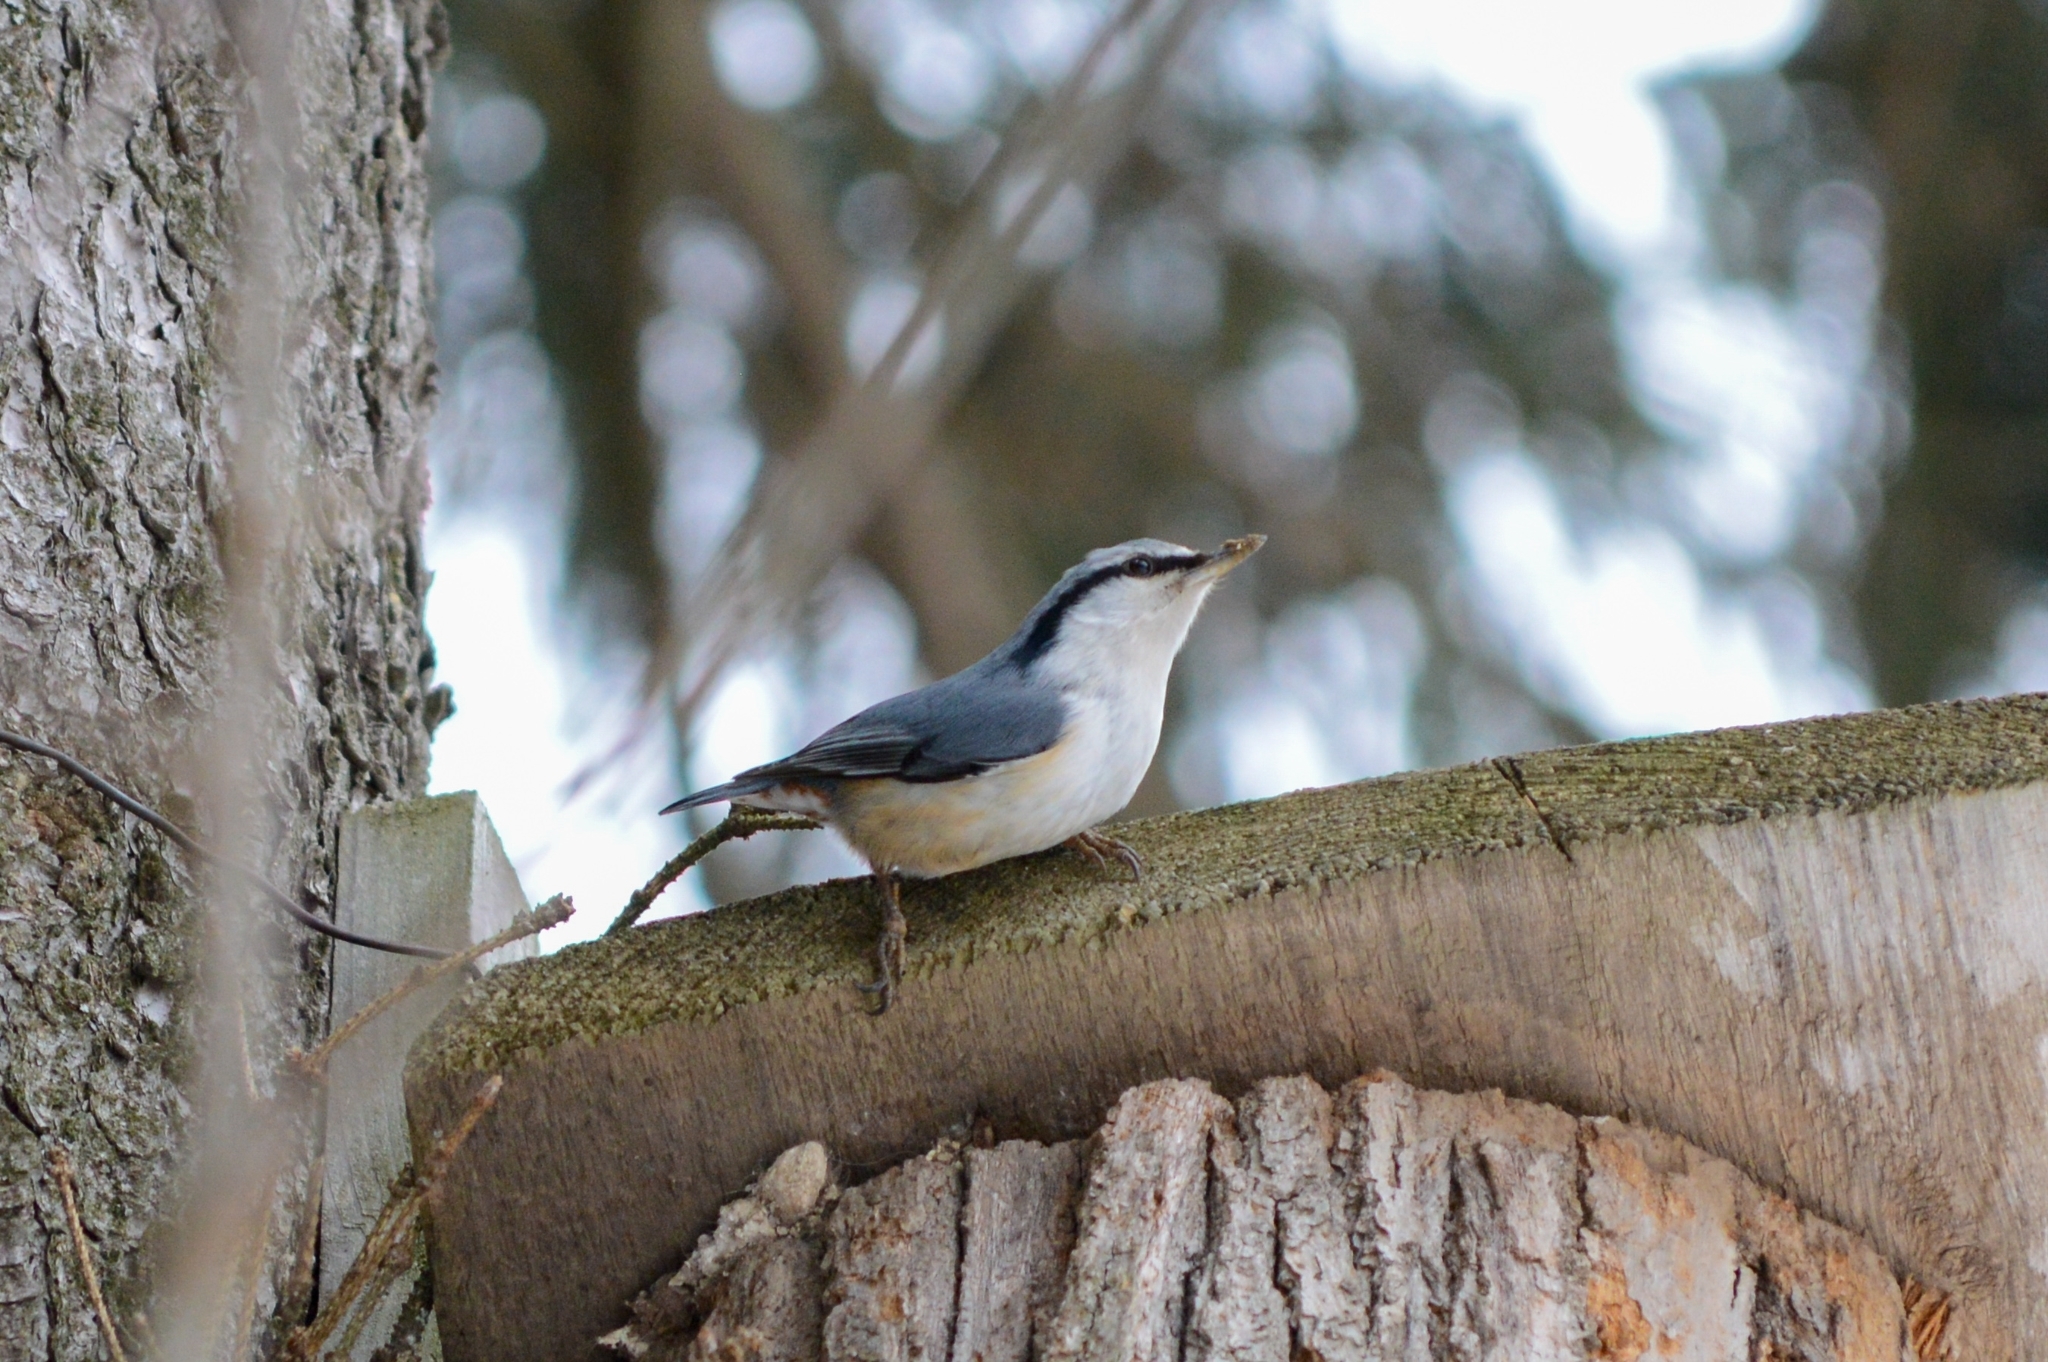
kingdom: Animalia
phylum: Chordata
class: Aves
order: Passeriformes
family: Sittidae
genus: Sitta
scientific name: Sitta europaea
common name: Eurasian nuthatch
